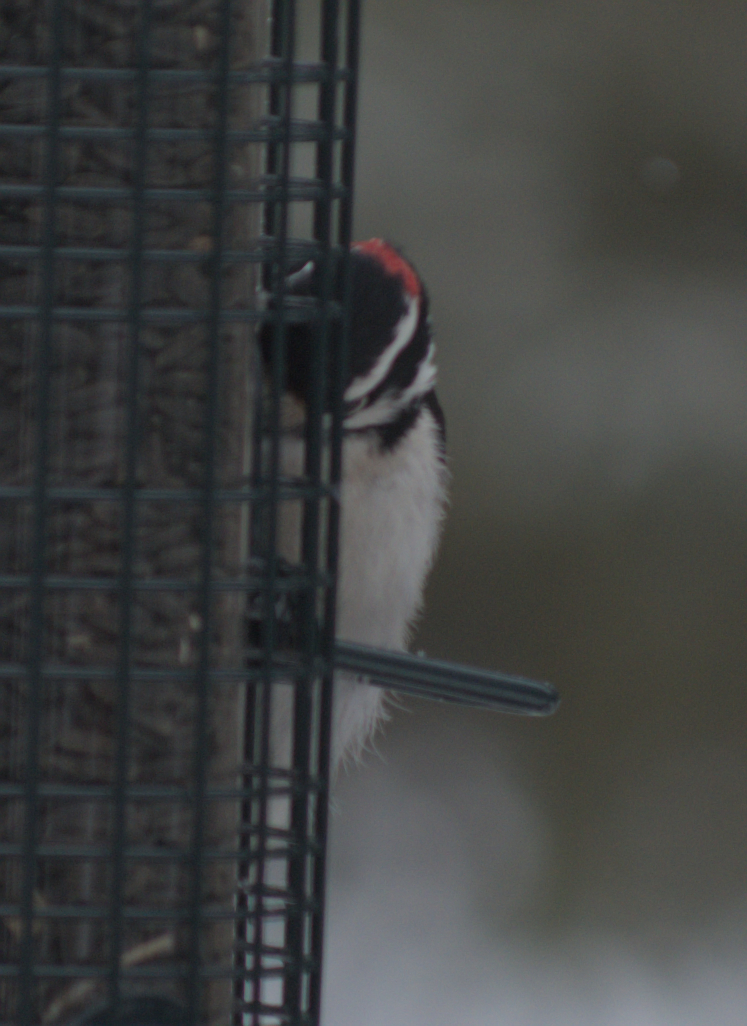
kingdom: Animalia
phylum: Chordata
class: Aves
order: Piciformes
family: Picidae
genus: Dryobates
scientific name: Dryobates pubescens
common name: Downy woodpecker
